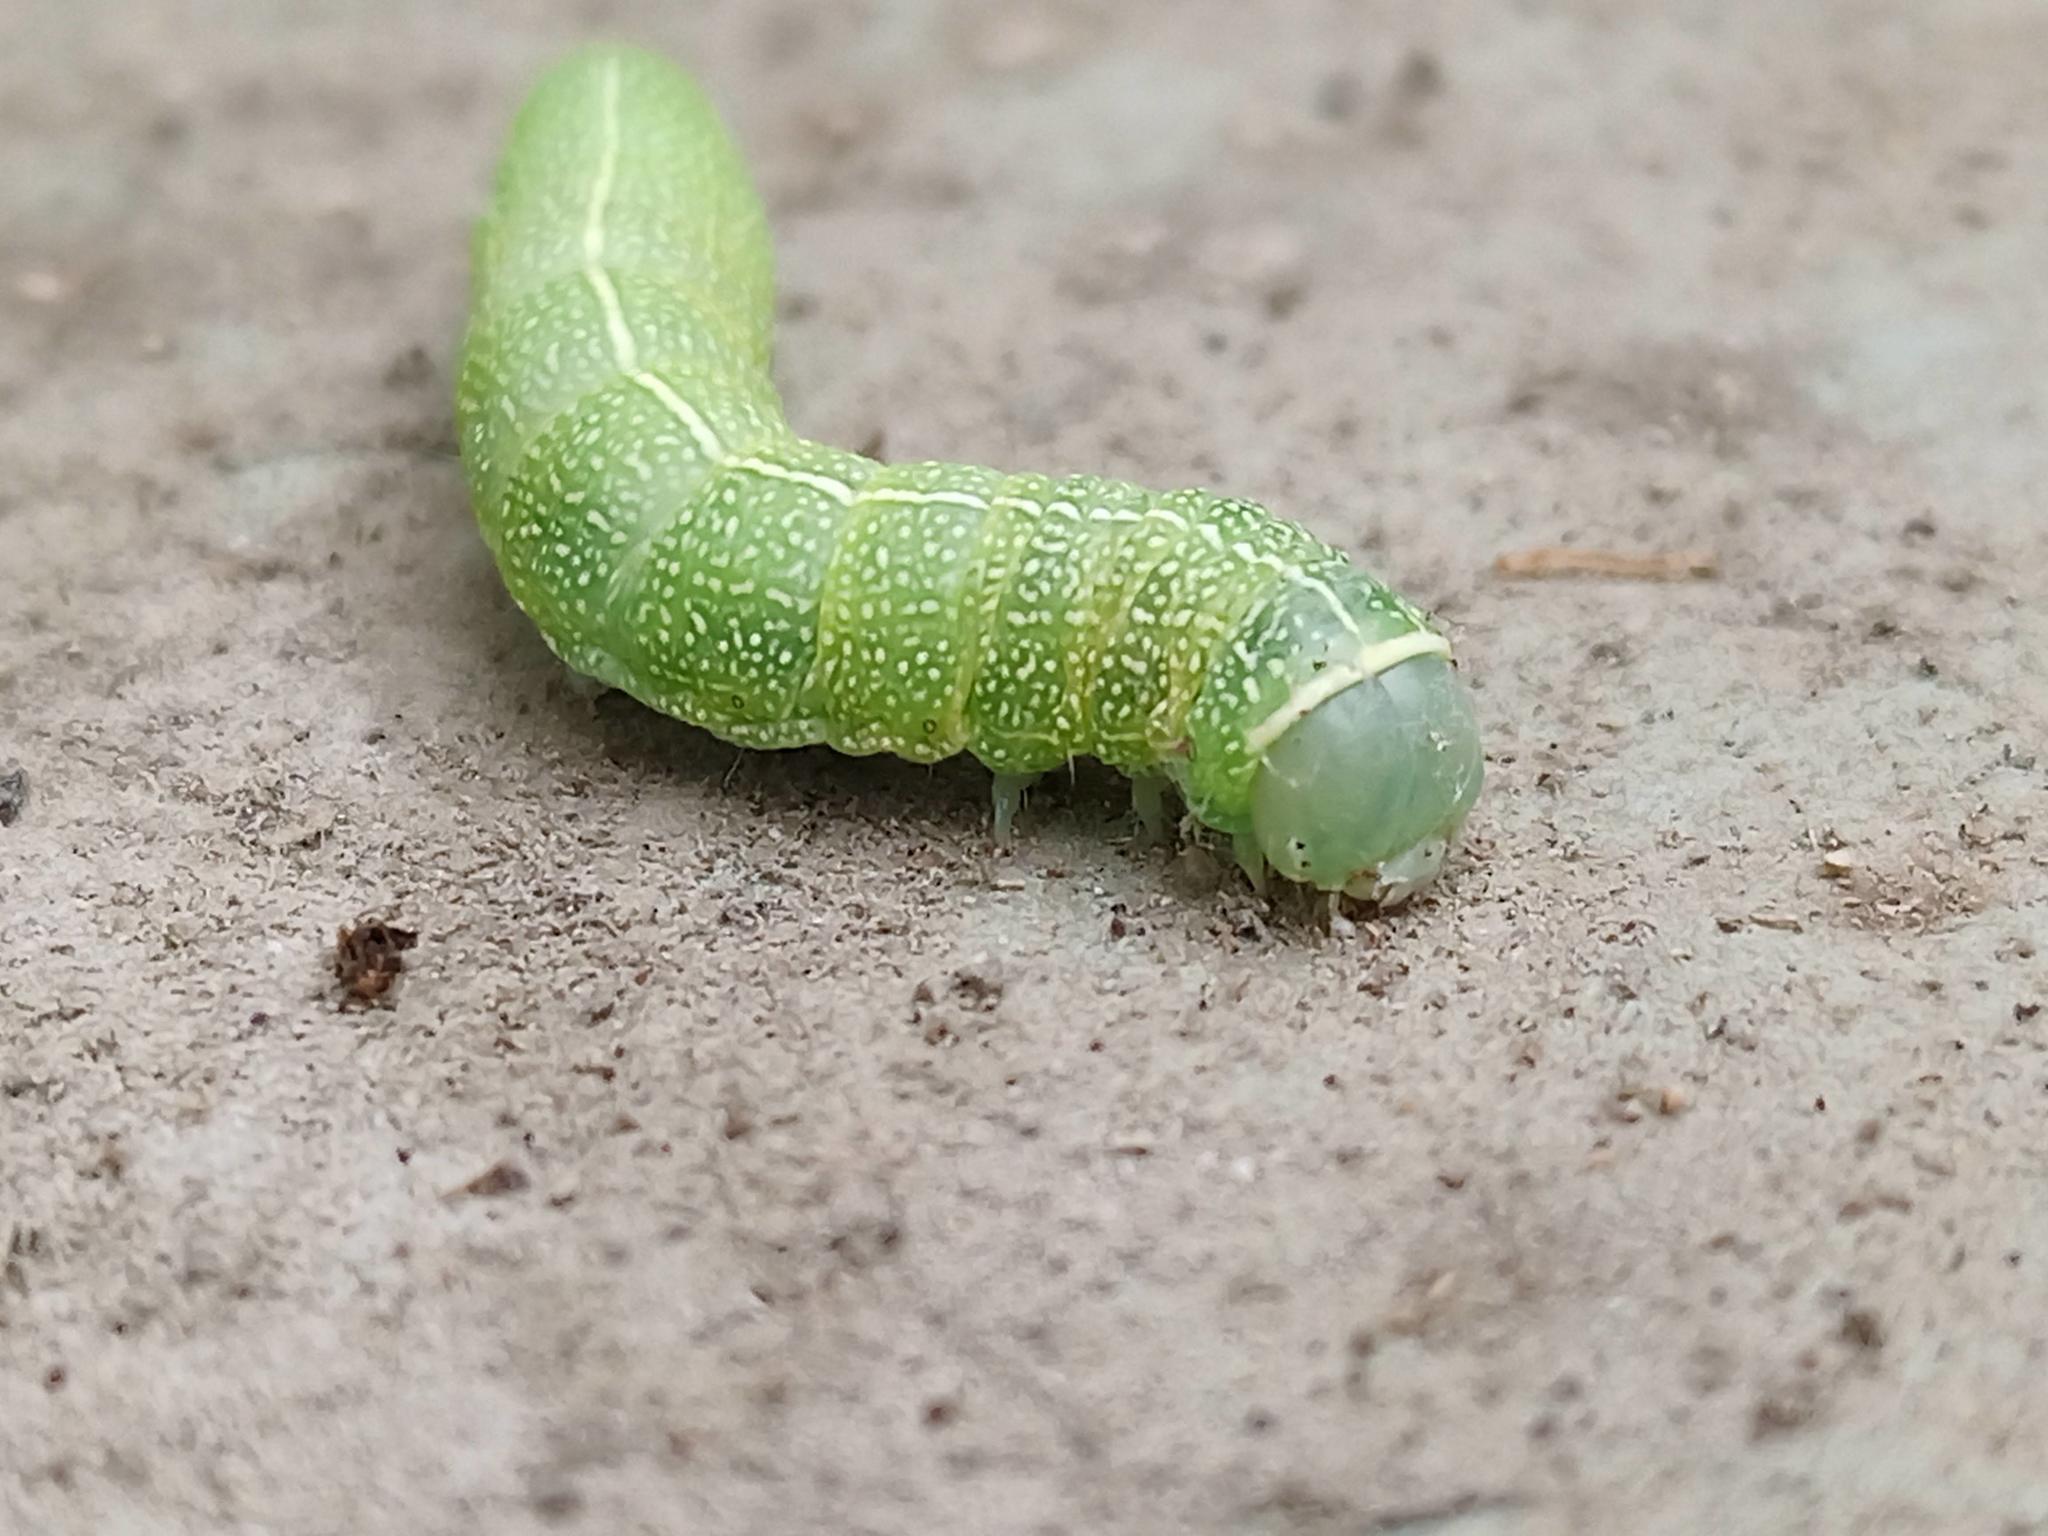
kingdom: Animalia
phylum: Arthropoda
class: Insecta
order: Lepidoptera
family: Noctuidae
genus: Orthosia
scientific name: Orthosia cerasi
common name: Common quaker
